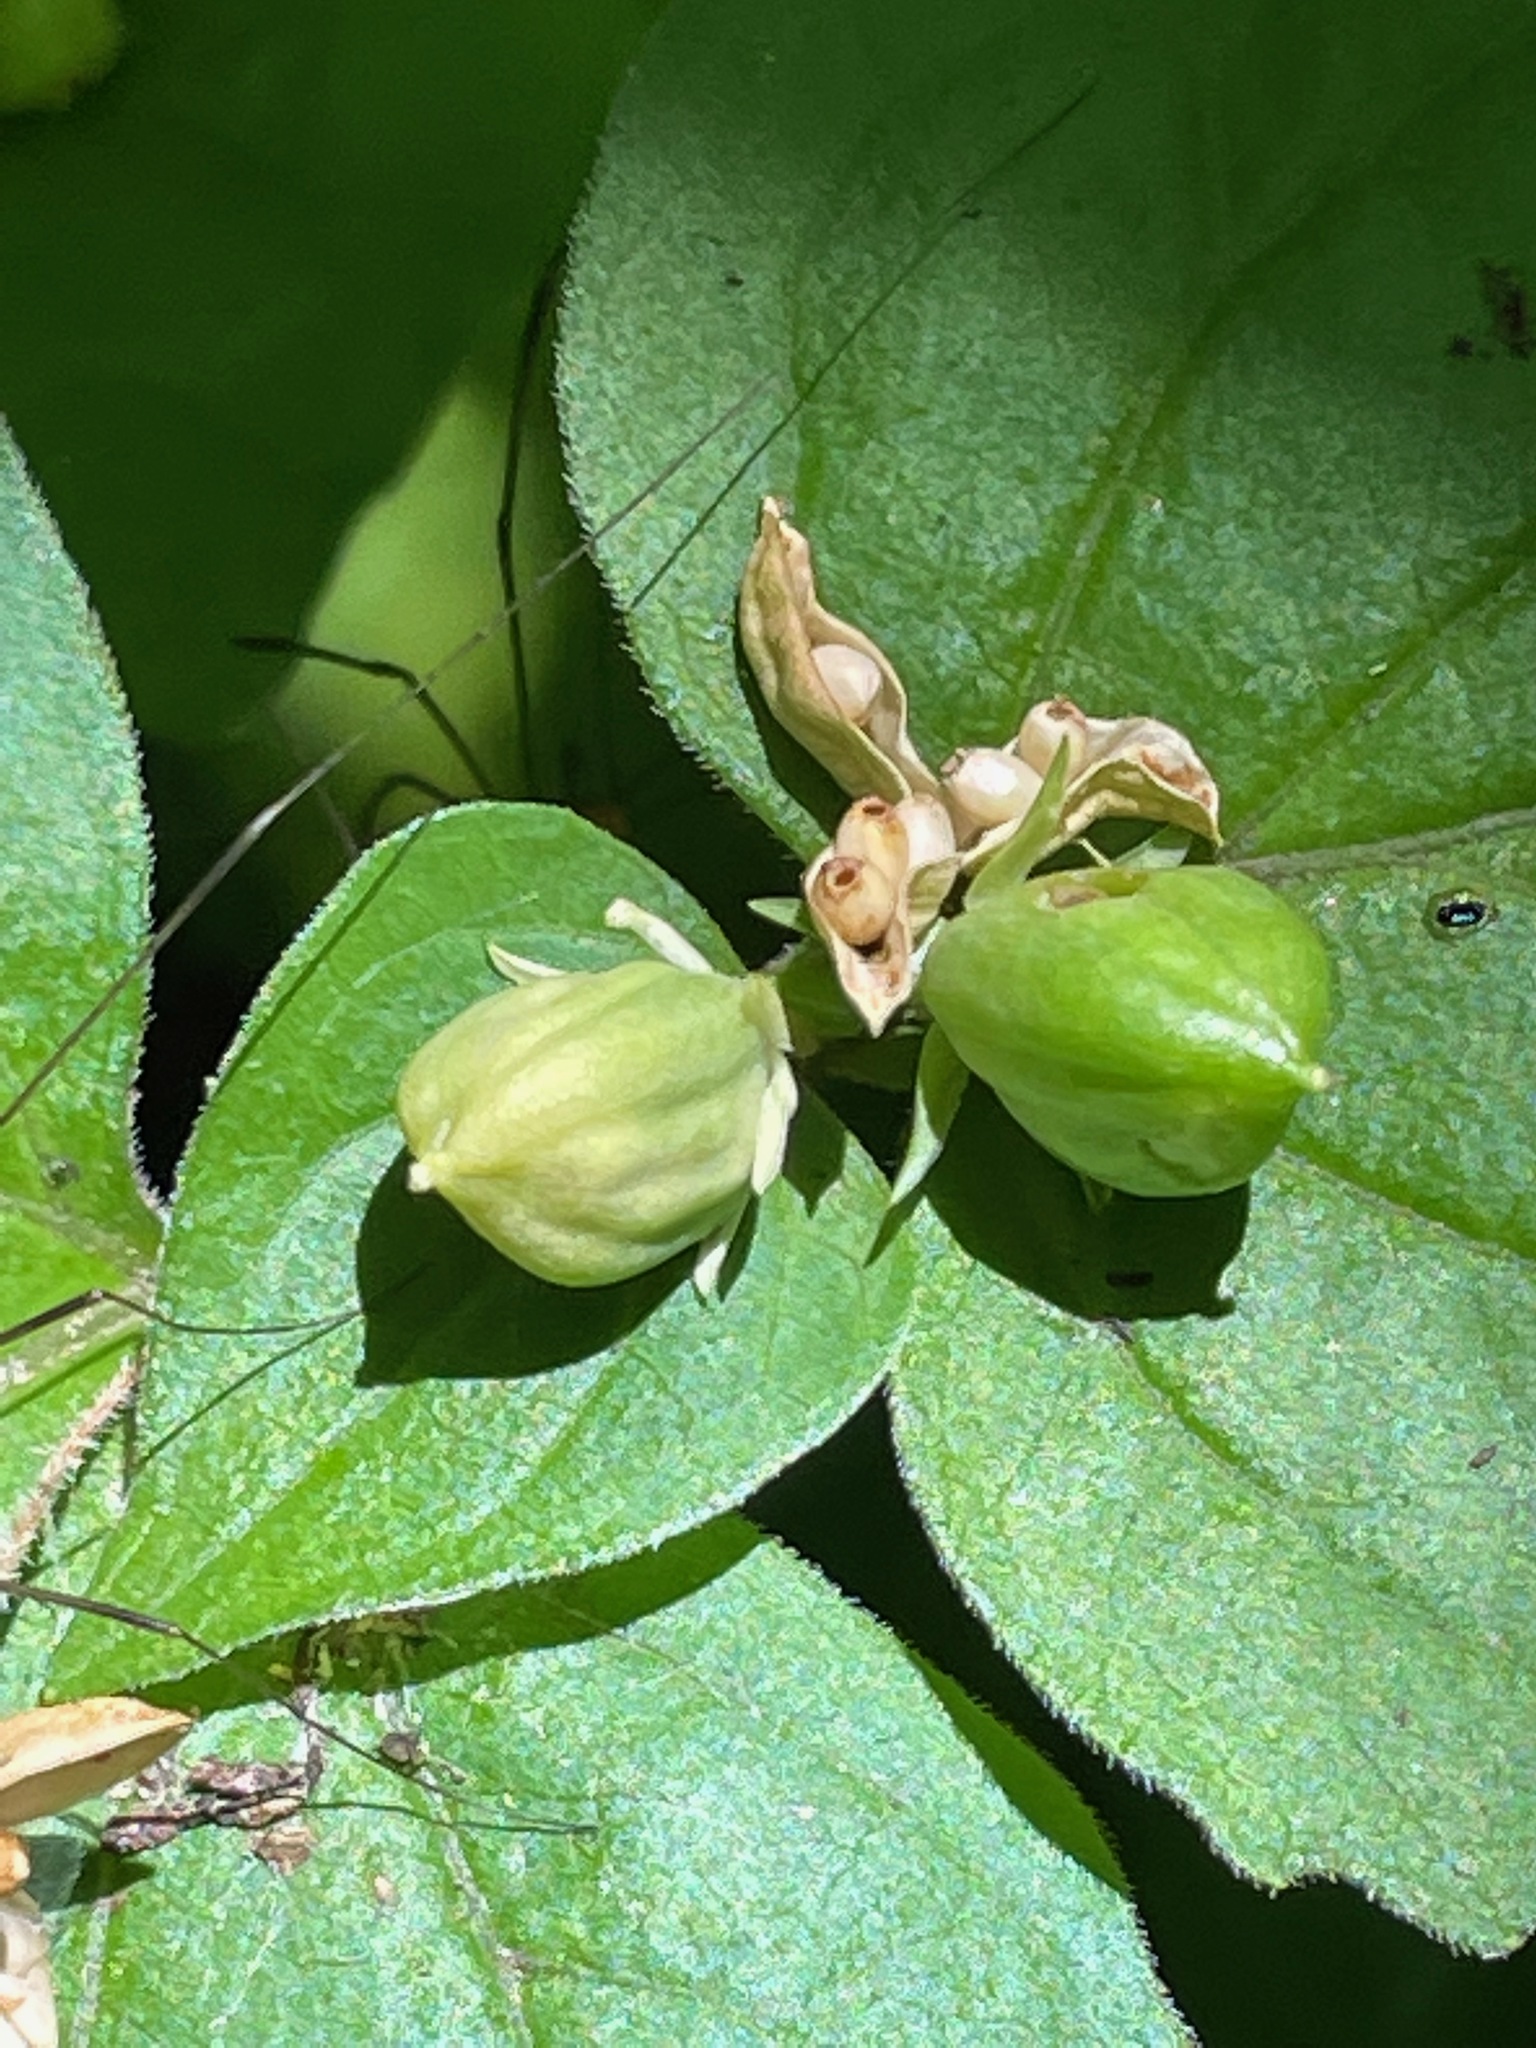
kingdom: Plantae
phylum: Tracheophyta
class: Magnoliopsida
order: Malpighiales
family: Violaceae
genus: Viola
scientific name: Viola eriocarpa
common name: Smooth yellow violet
